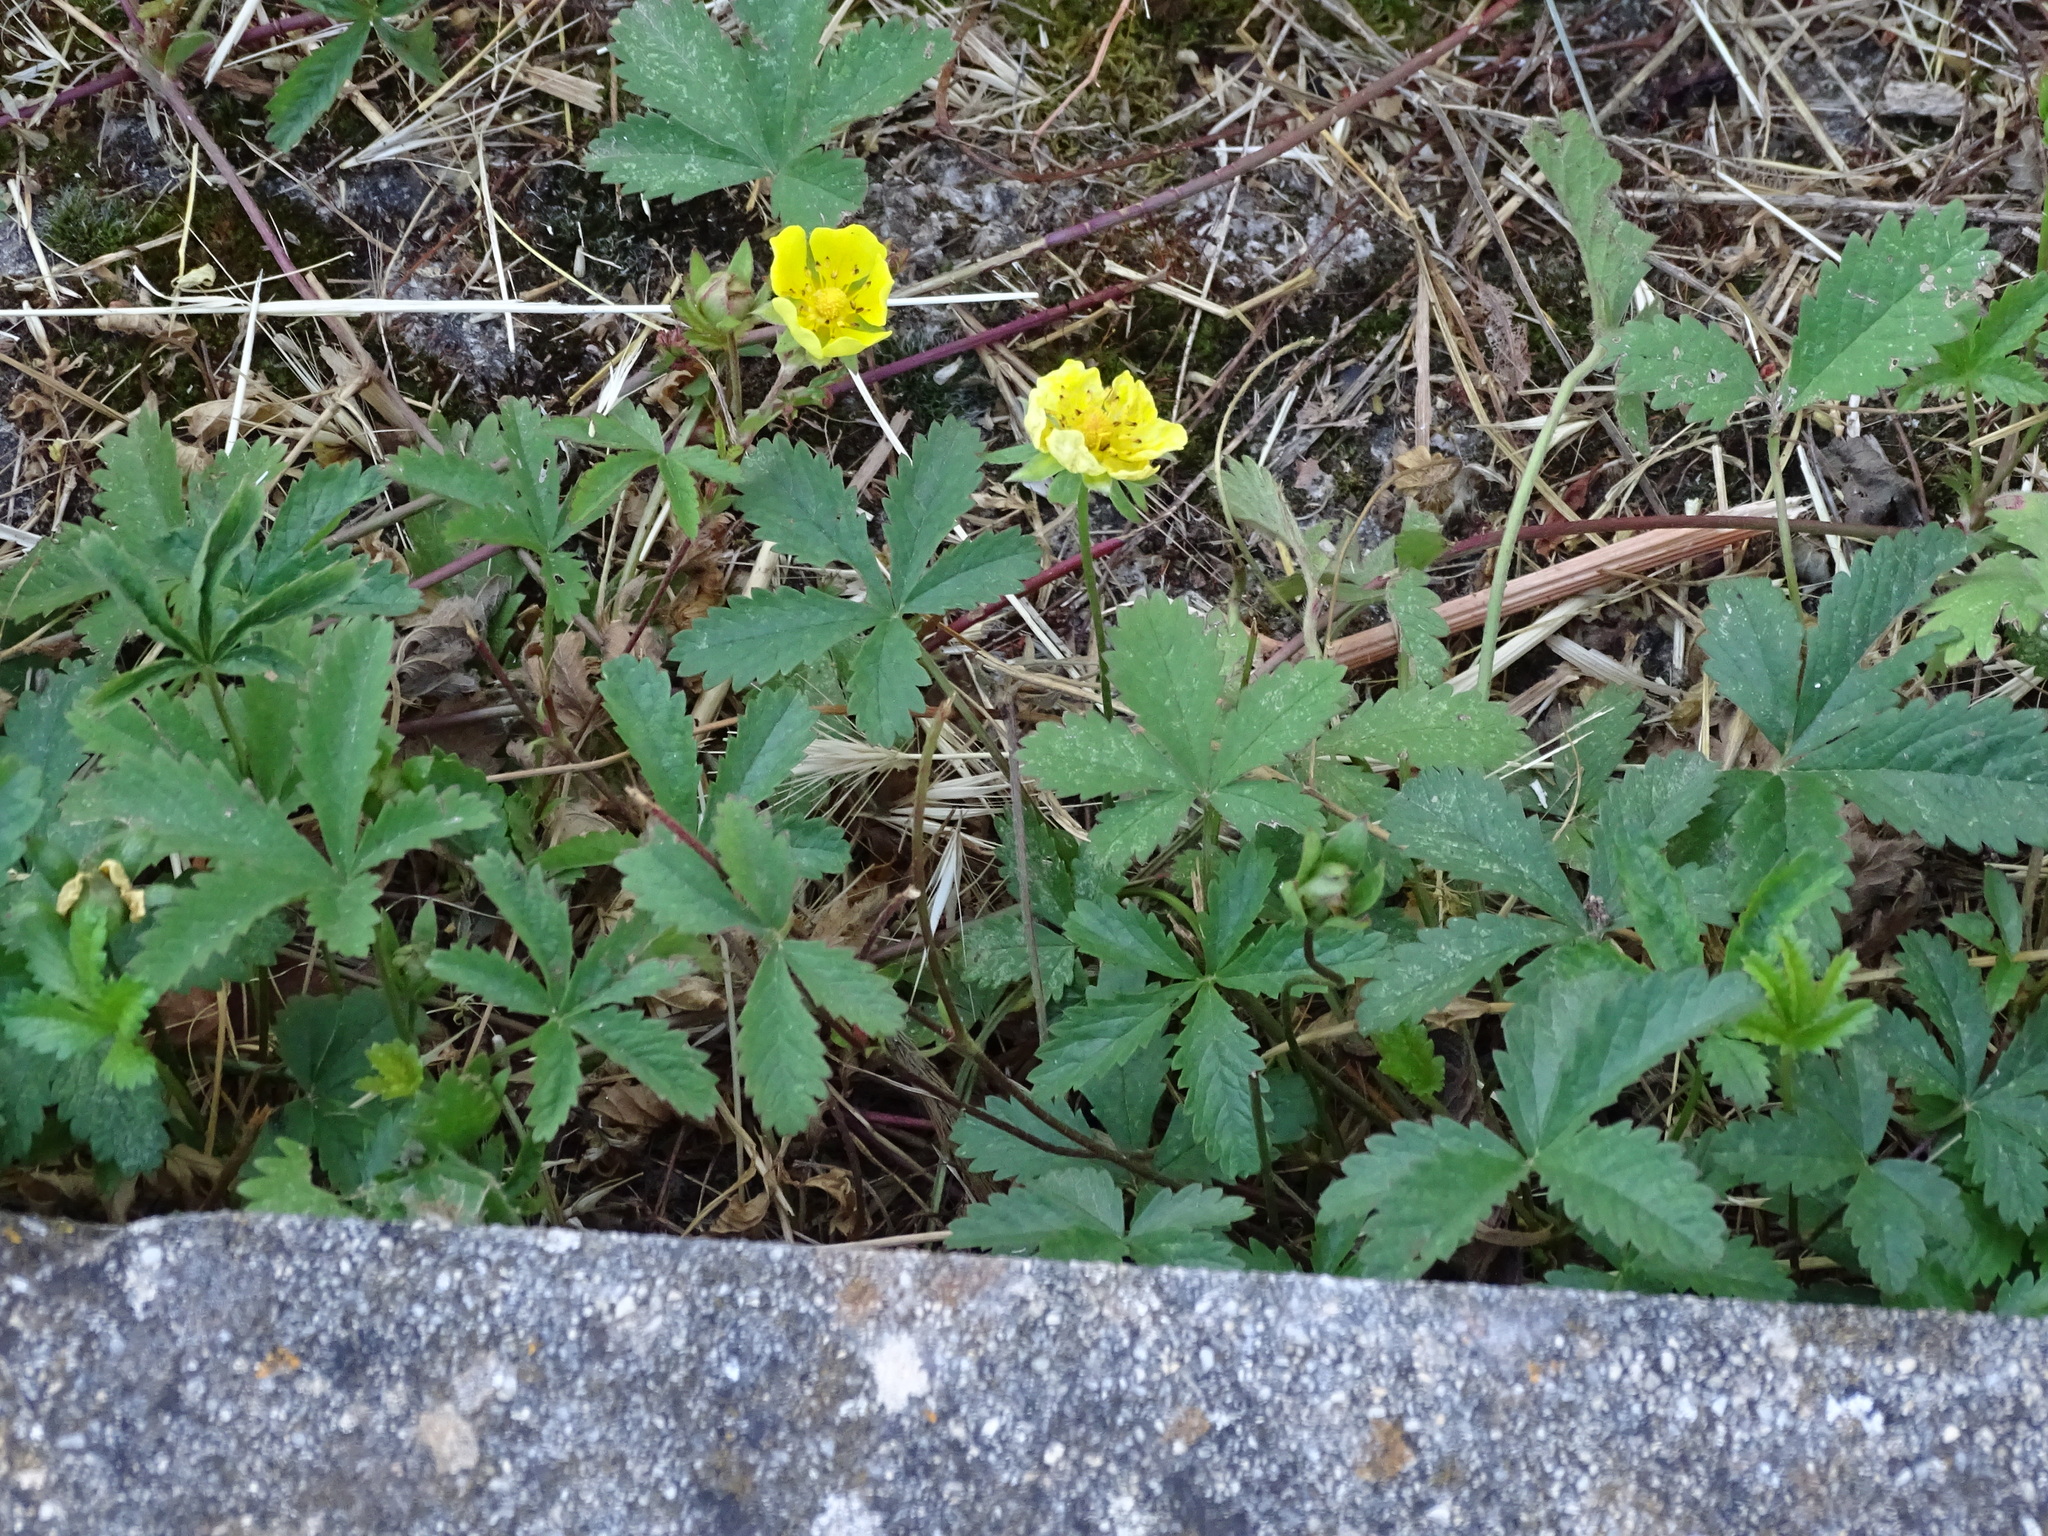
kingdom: Plantae
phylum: Tracheophyta
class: Magnoliopsida
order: Rosales
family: Rosaceae
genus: Potentilla
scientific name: Potentilla reptans
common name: Creeping cinquefoil
